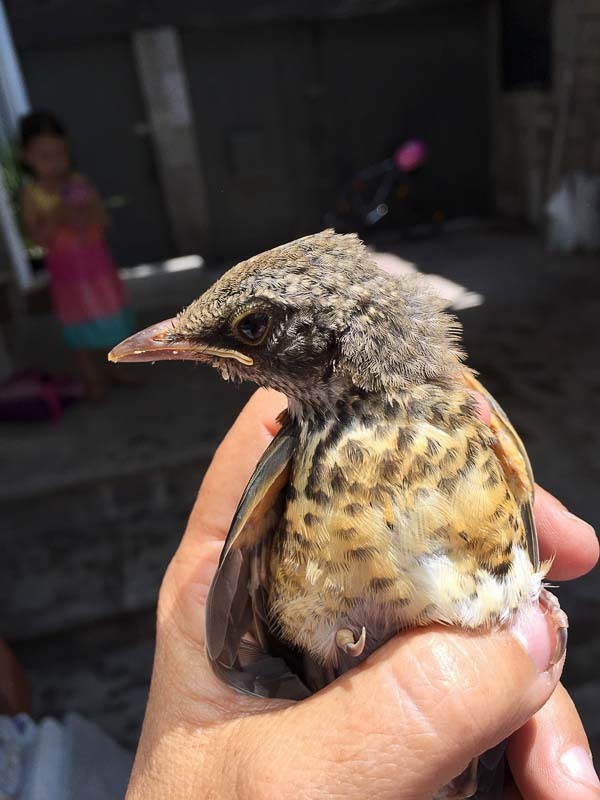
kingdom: Animalia
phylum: Chordata
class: Aves
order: Passeriformes
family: Turdidae
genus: Turdus
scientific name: Turdus rufopalliatus
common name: Rufous-backed robin
